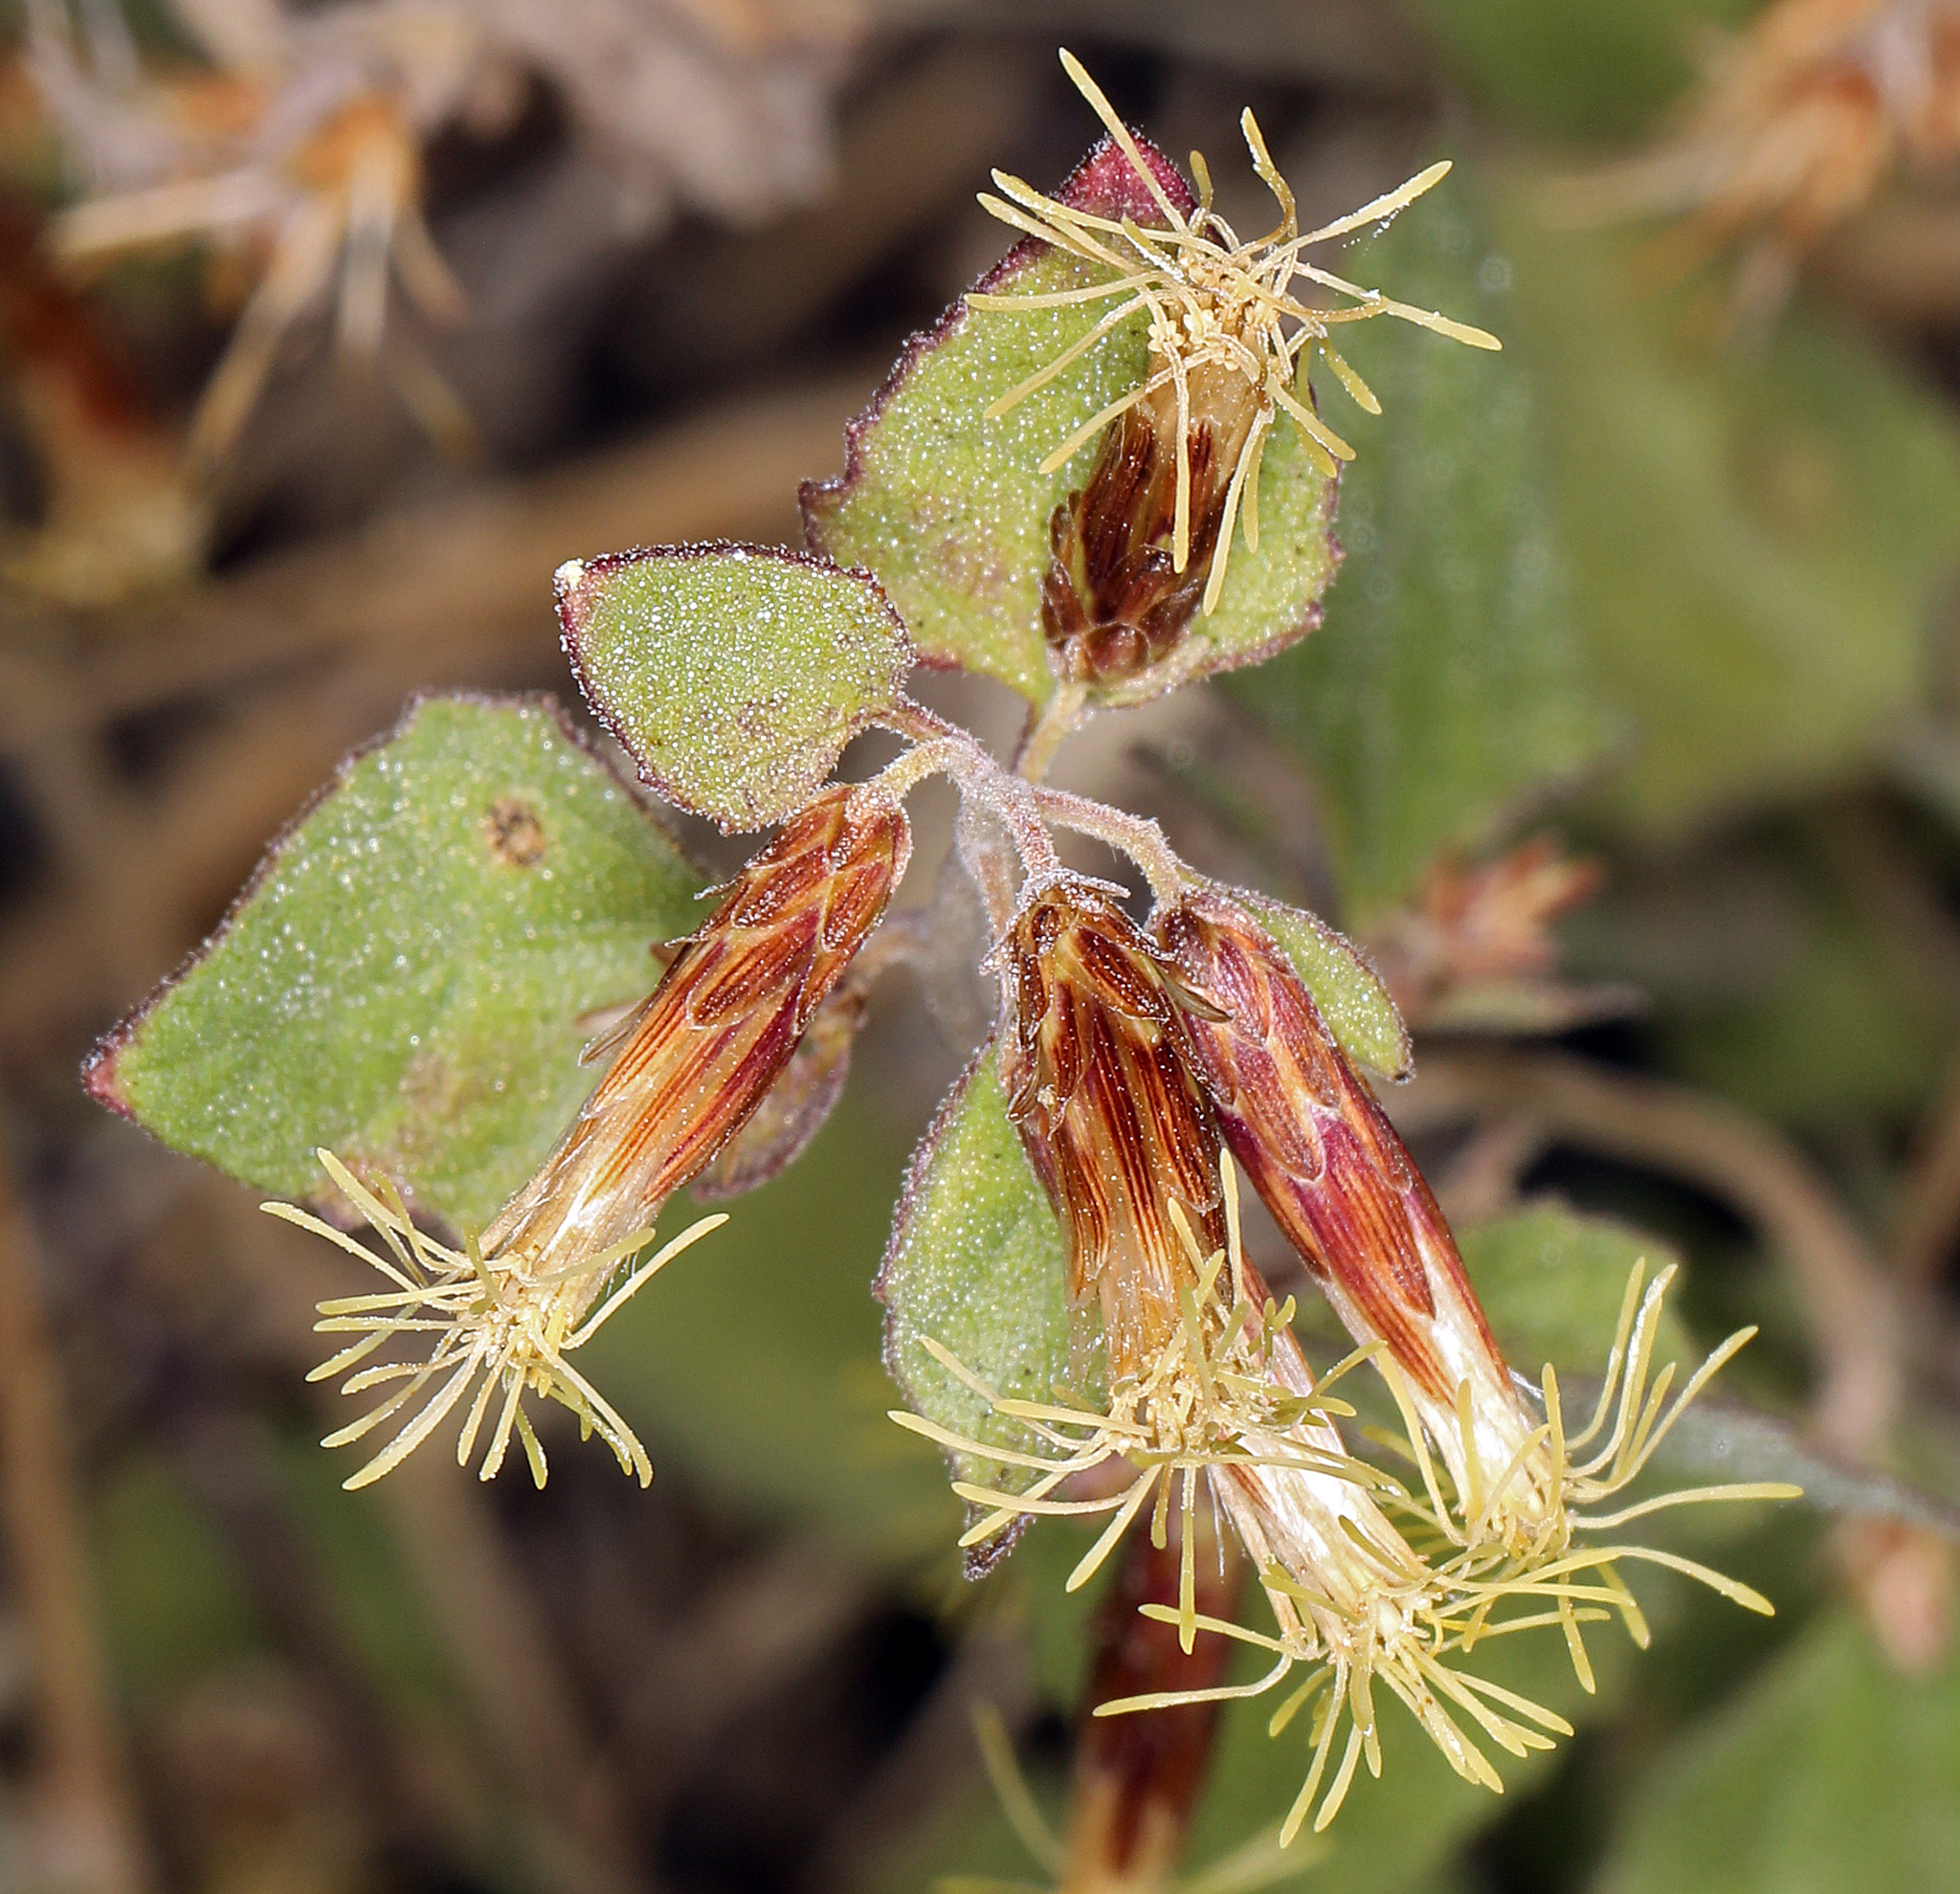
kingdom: Plantae
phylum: Tracheophyta
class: Magnoliopsida
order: Asterales
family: Asteraceae
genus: Brickellia
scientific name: Brickellia californica
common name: California brickellbush
